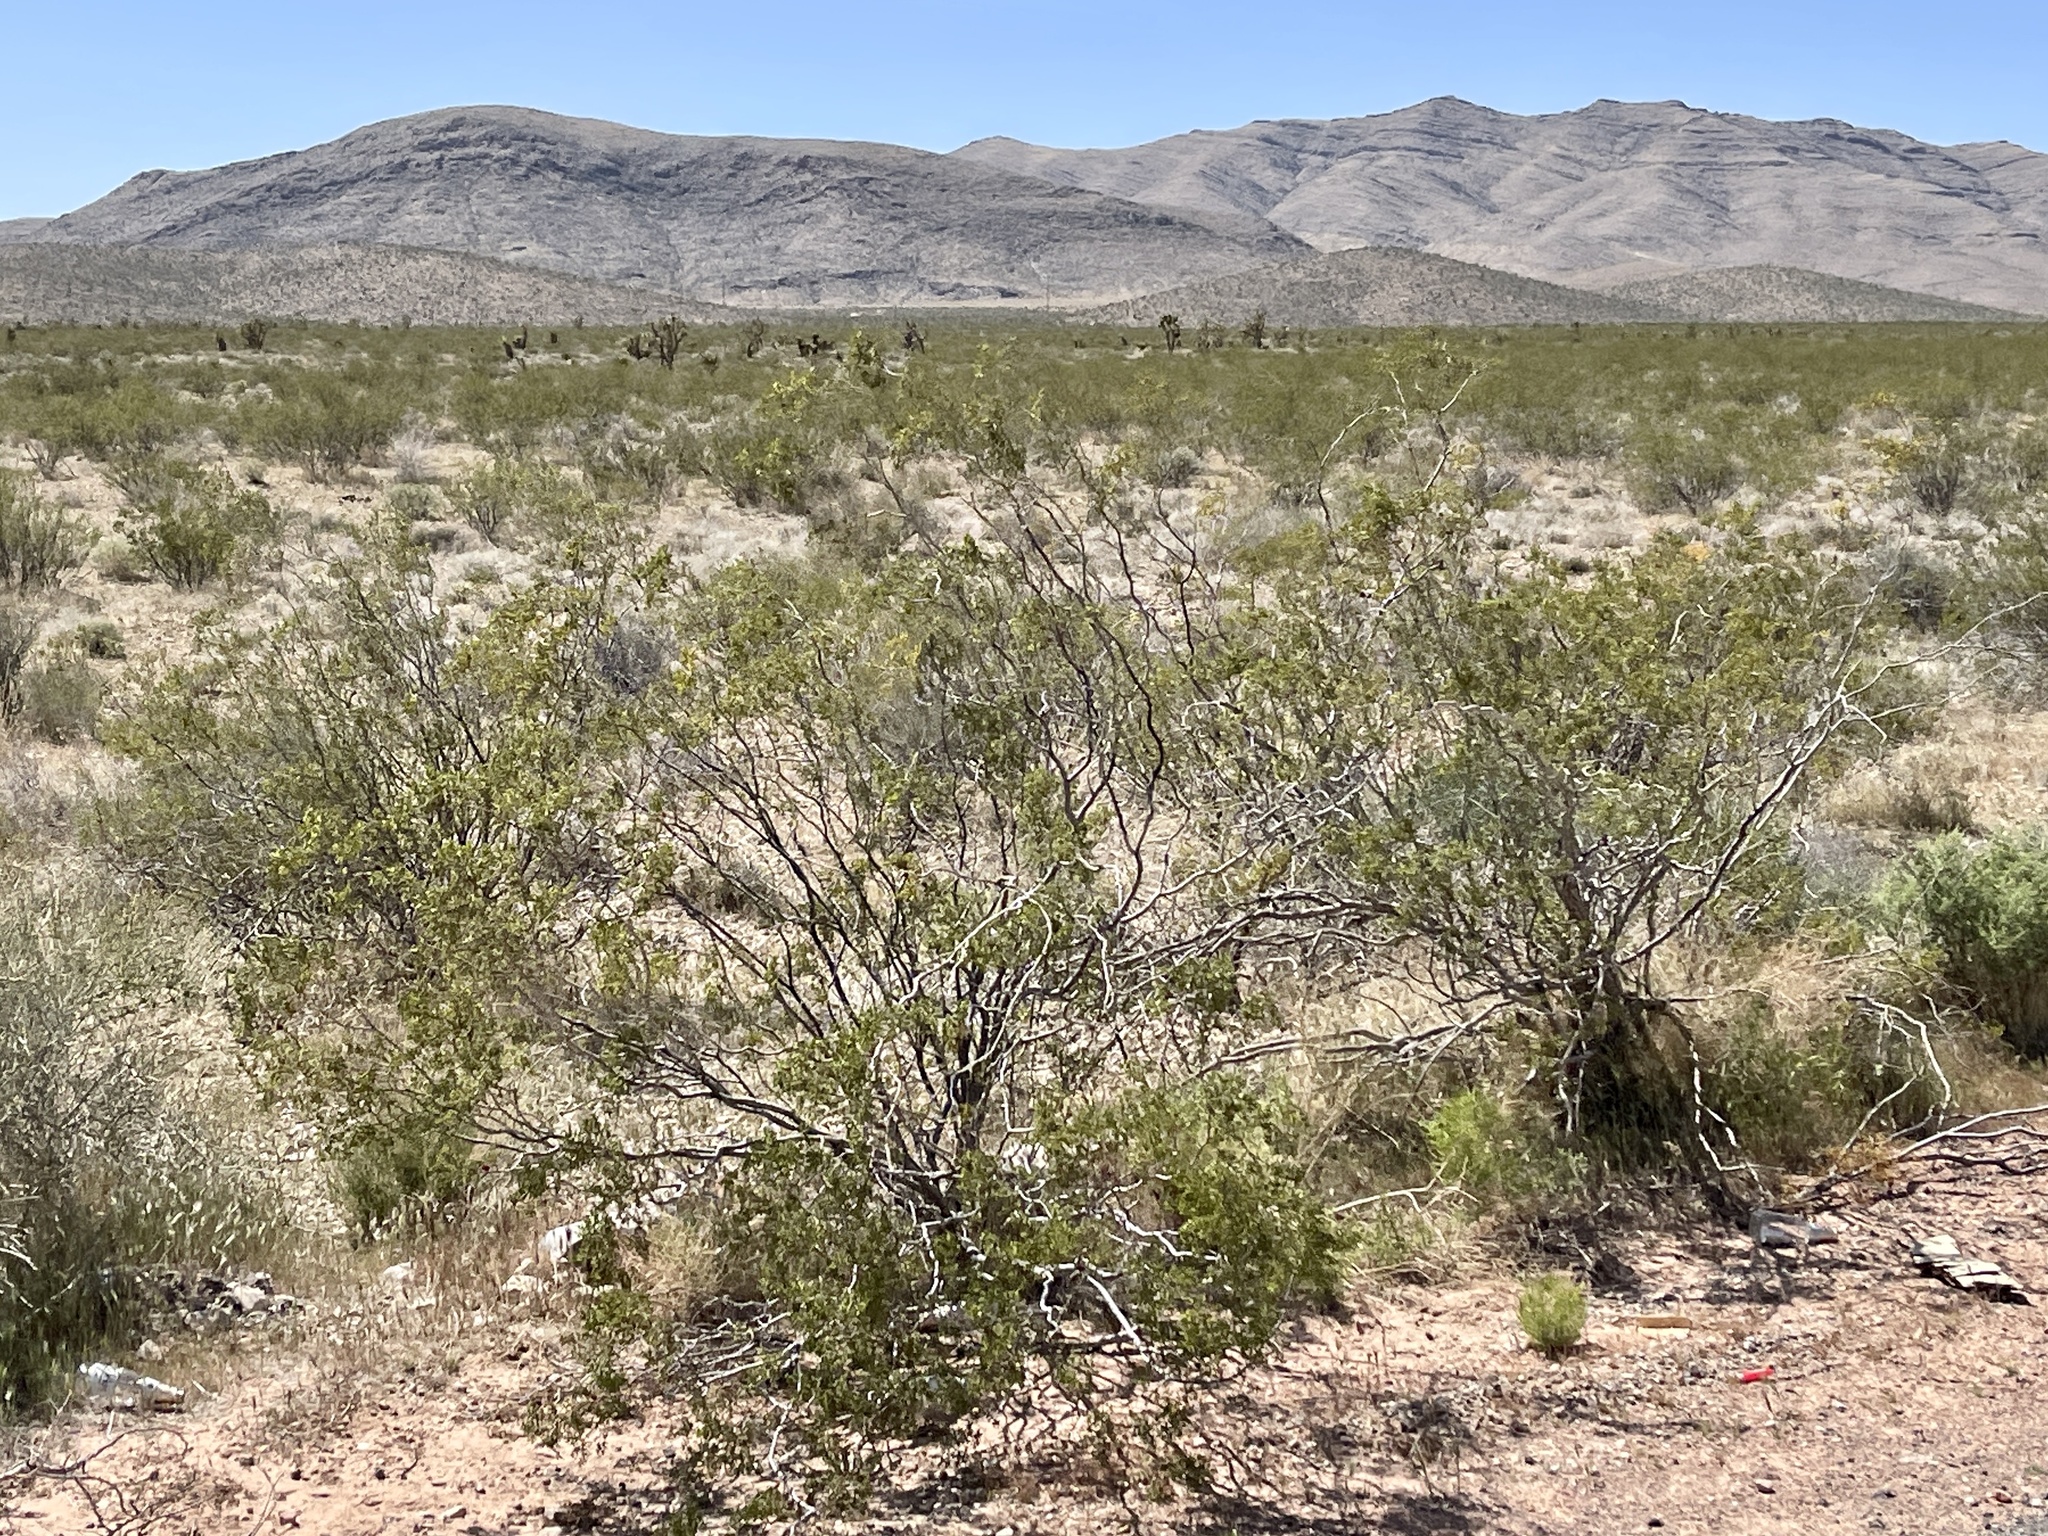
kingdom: Plantae
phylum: Tracheophyta
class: Magnoliopsida
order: Zygophyllales
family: Zygophyllaceae
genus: Larrea
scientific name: Larrea tridentata
